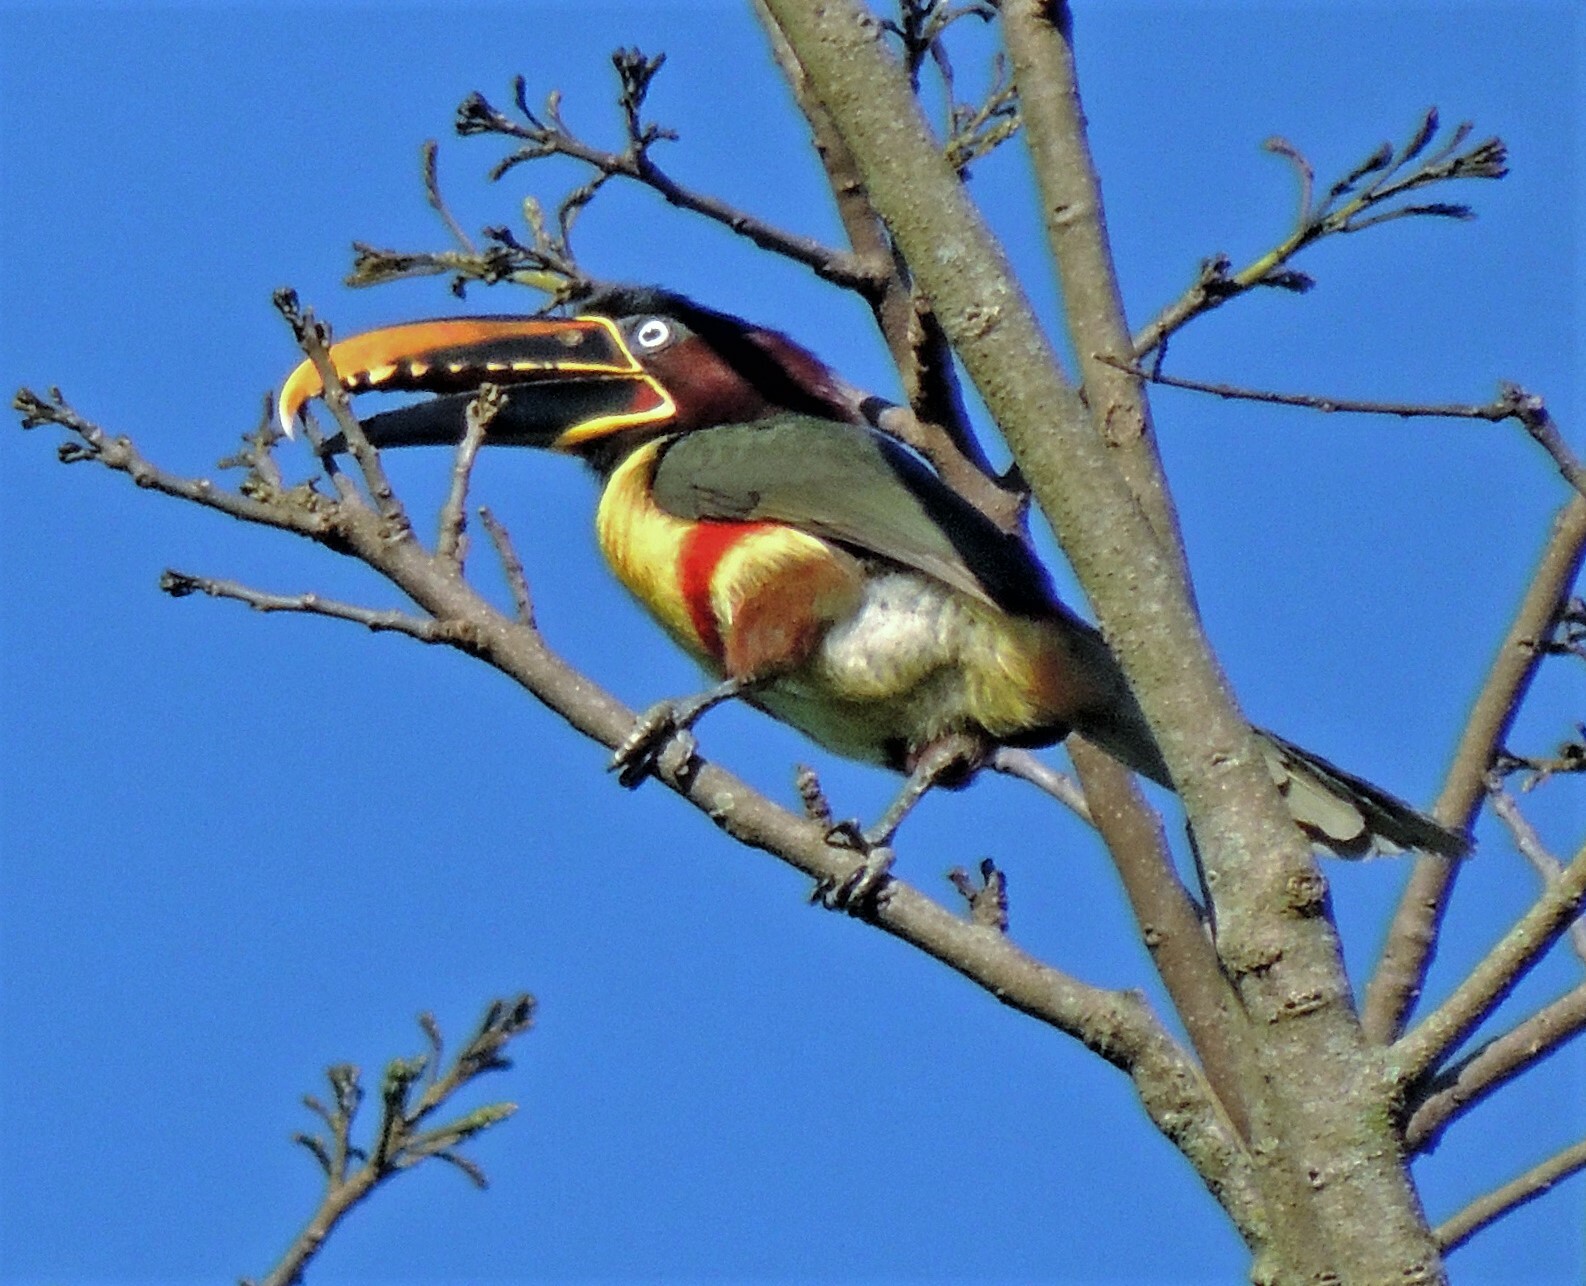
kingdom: Animalia
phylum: Chordata
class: Aves
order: Piciformes
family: Ramphastidae
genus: Pteroglossus
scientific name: Pteroglossus castanotis
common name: Chestnut-eared aracari
